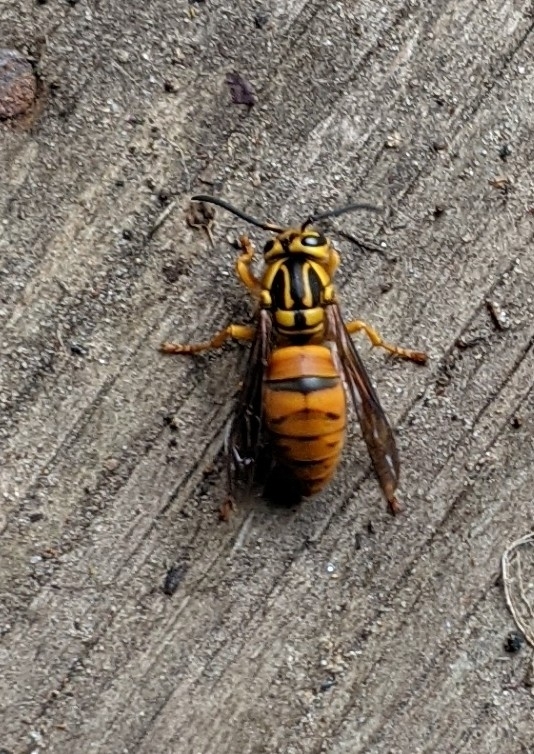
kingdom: Animalia
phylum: Arthropoda
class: Insecta
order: Hymenoptera
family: Vespidae
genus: Vespula
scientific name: Vespula squamosa
